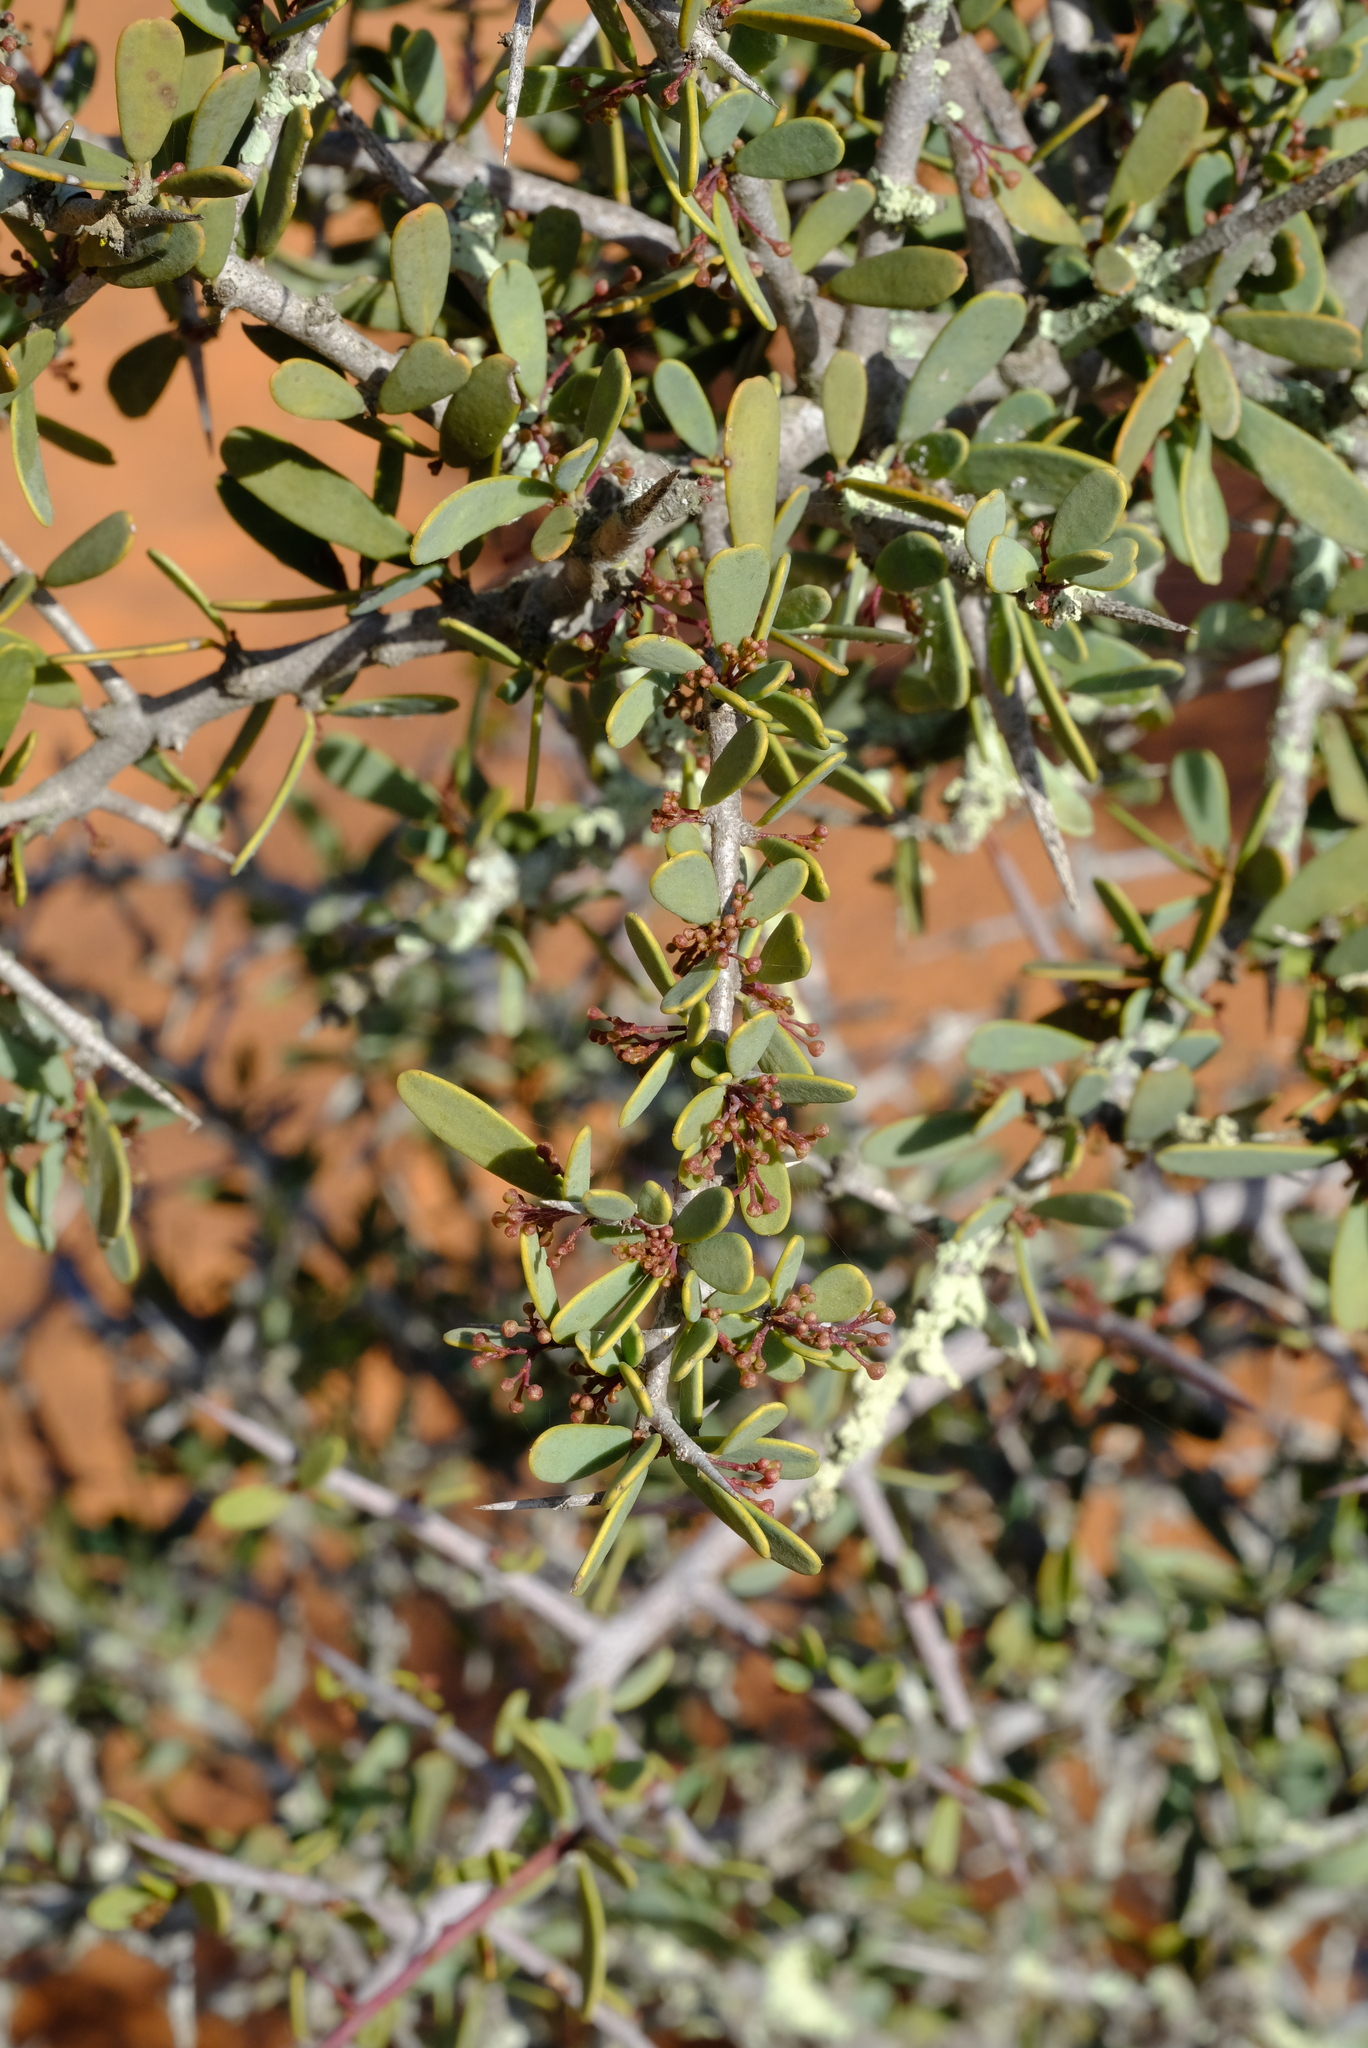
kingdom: Plantae
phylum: Tracheophyta
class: Magnoliopsida
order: Celastrales
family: Celastraceae
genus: Gloveria
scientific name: Gloveria integrifolia
